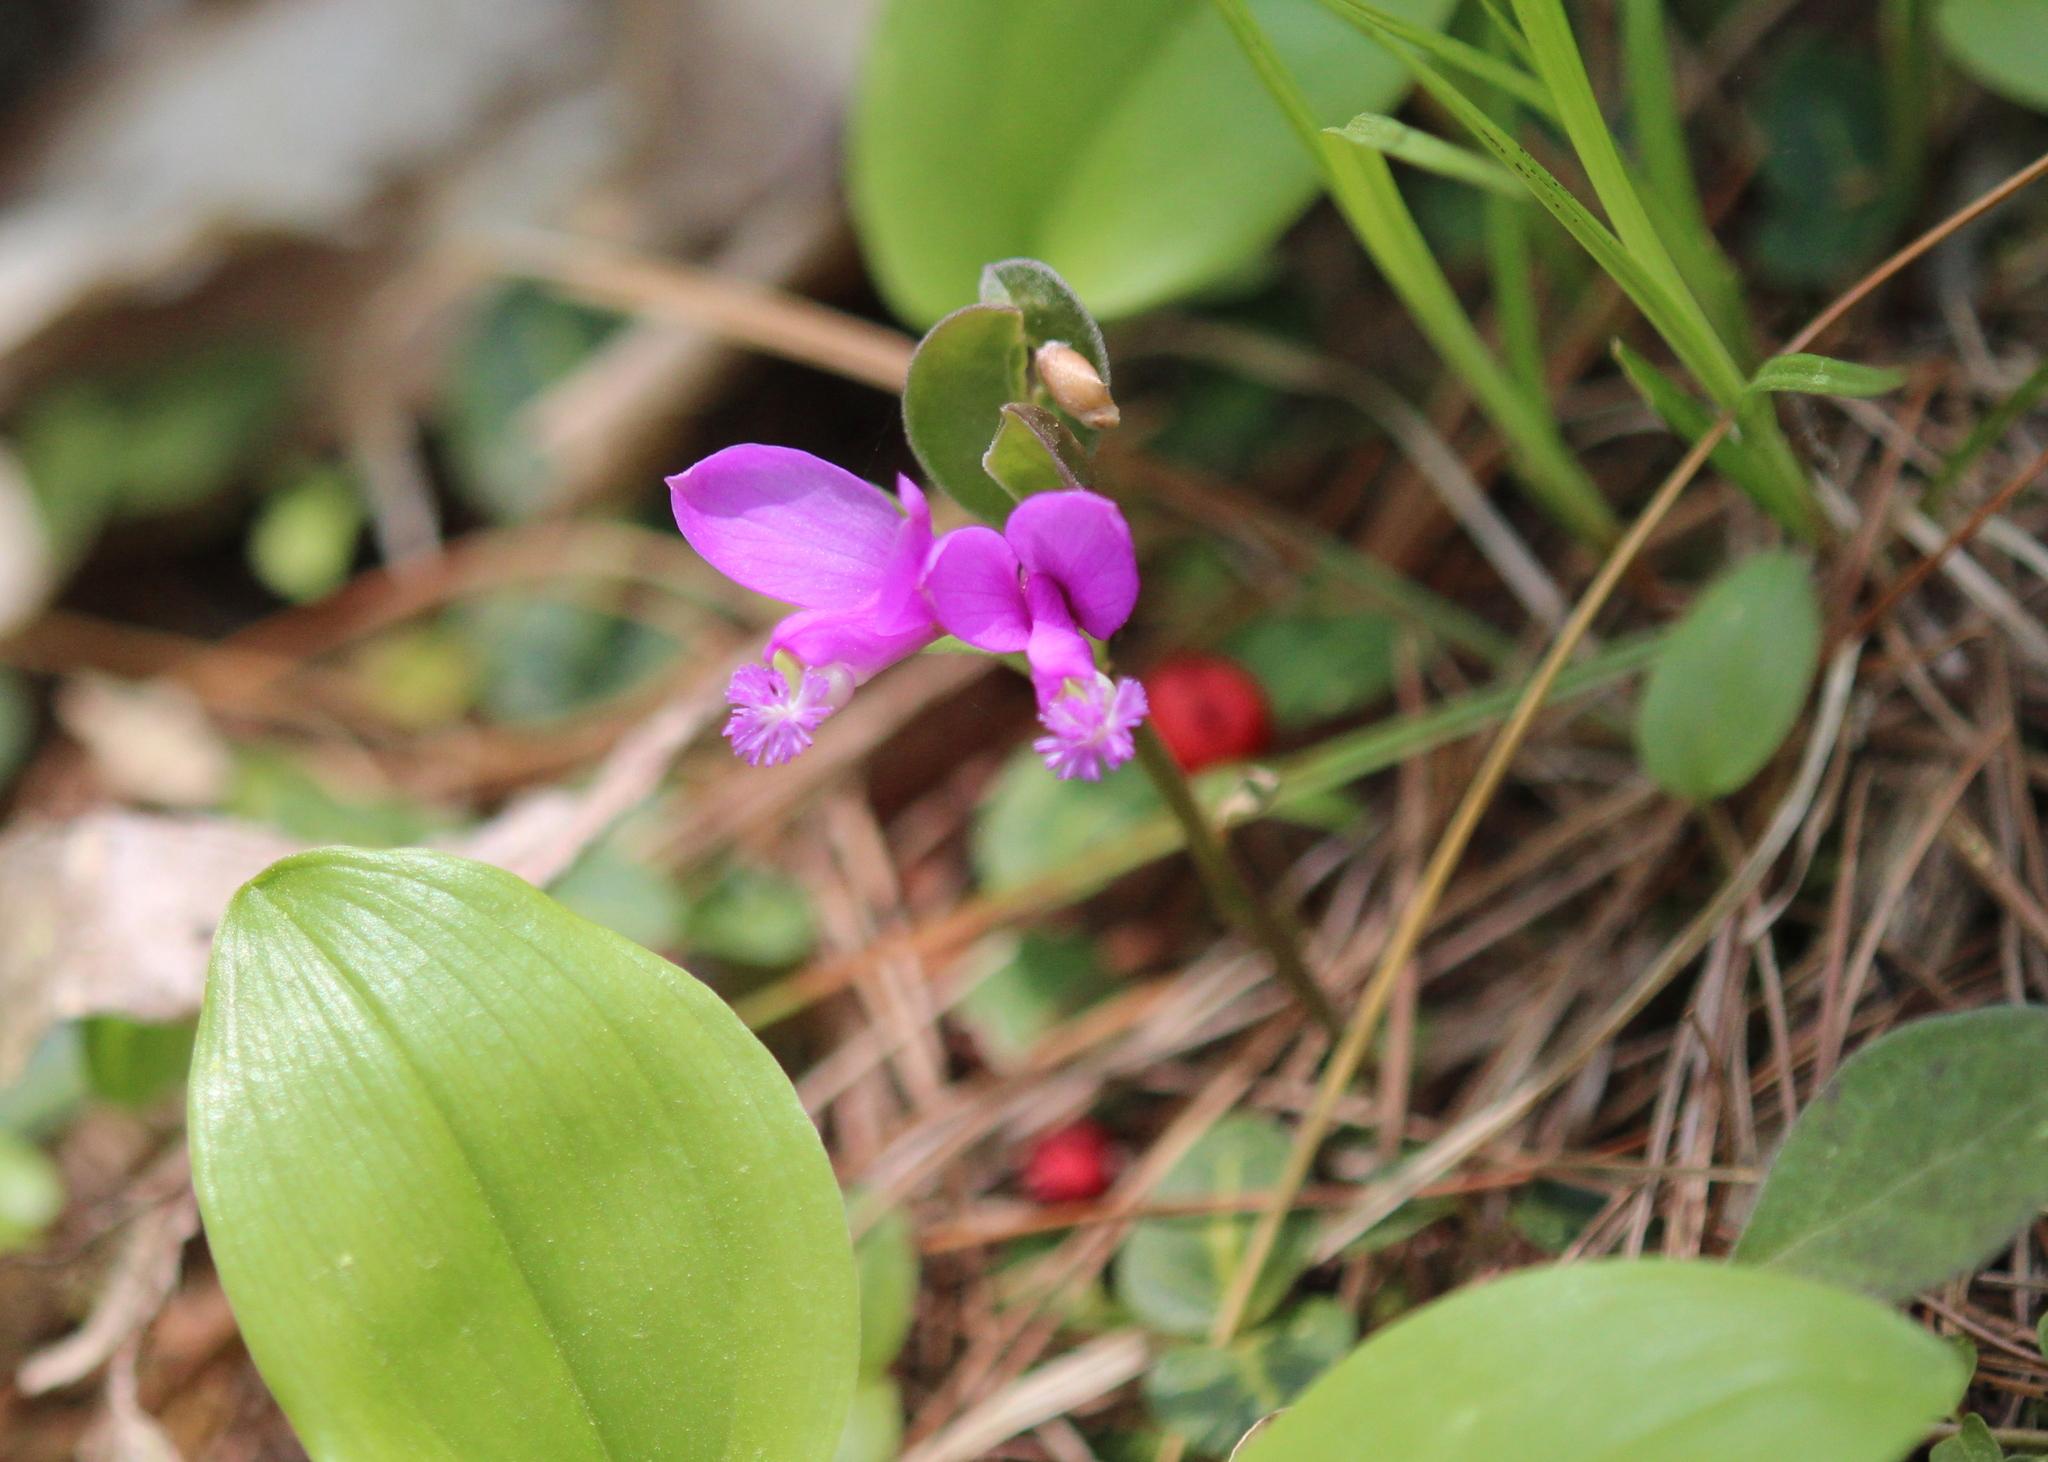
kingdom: Plantae
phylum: Tracheophyta
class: Magnoliopsida
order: Fabales
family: Polygalaceae
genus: Polygaloides
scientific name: Polygaloides paucifolia
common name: Bird-on-the-wing
